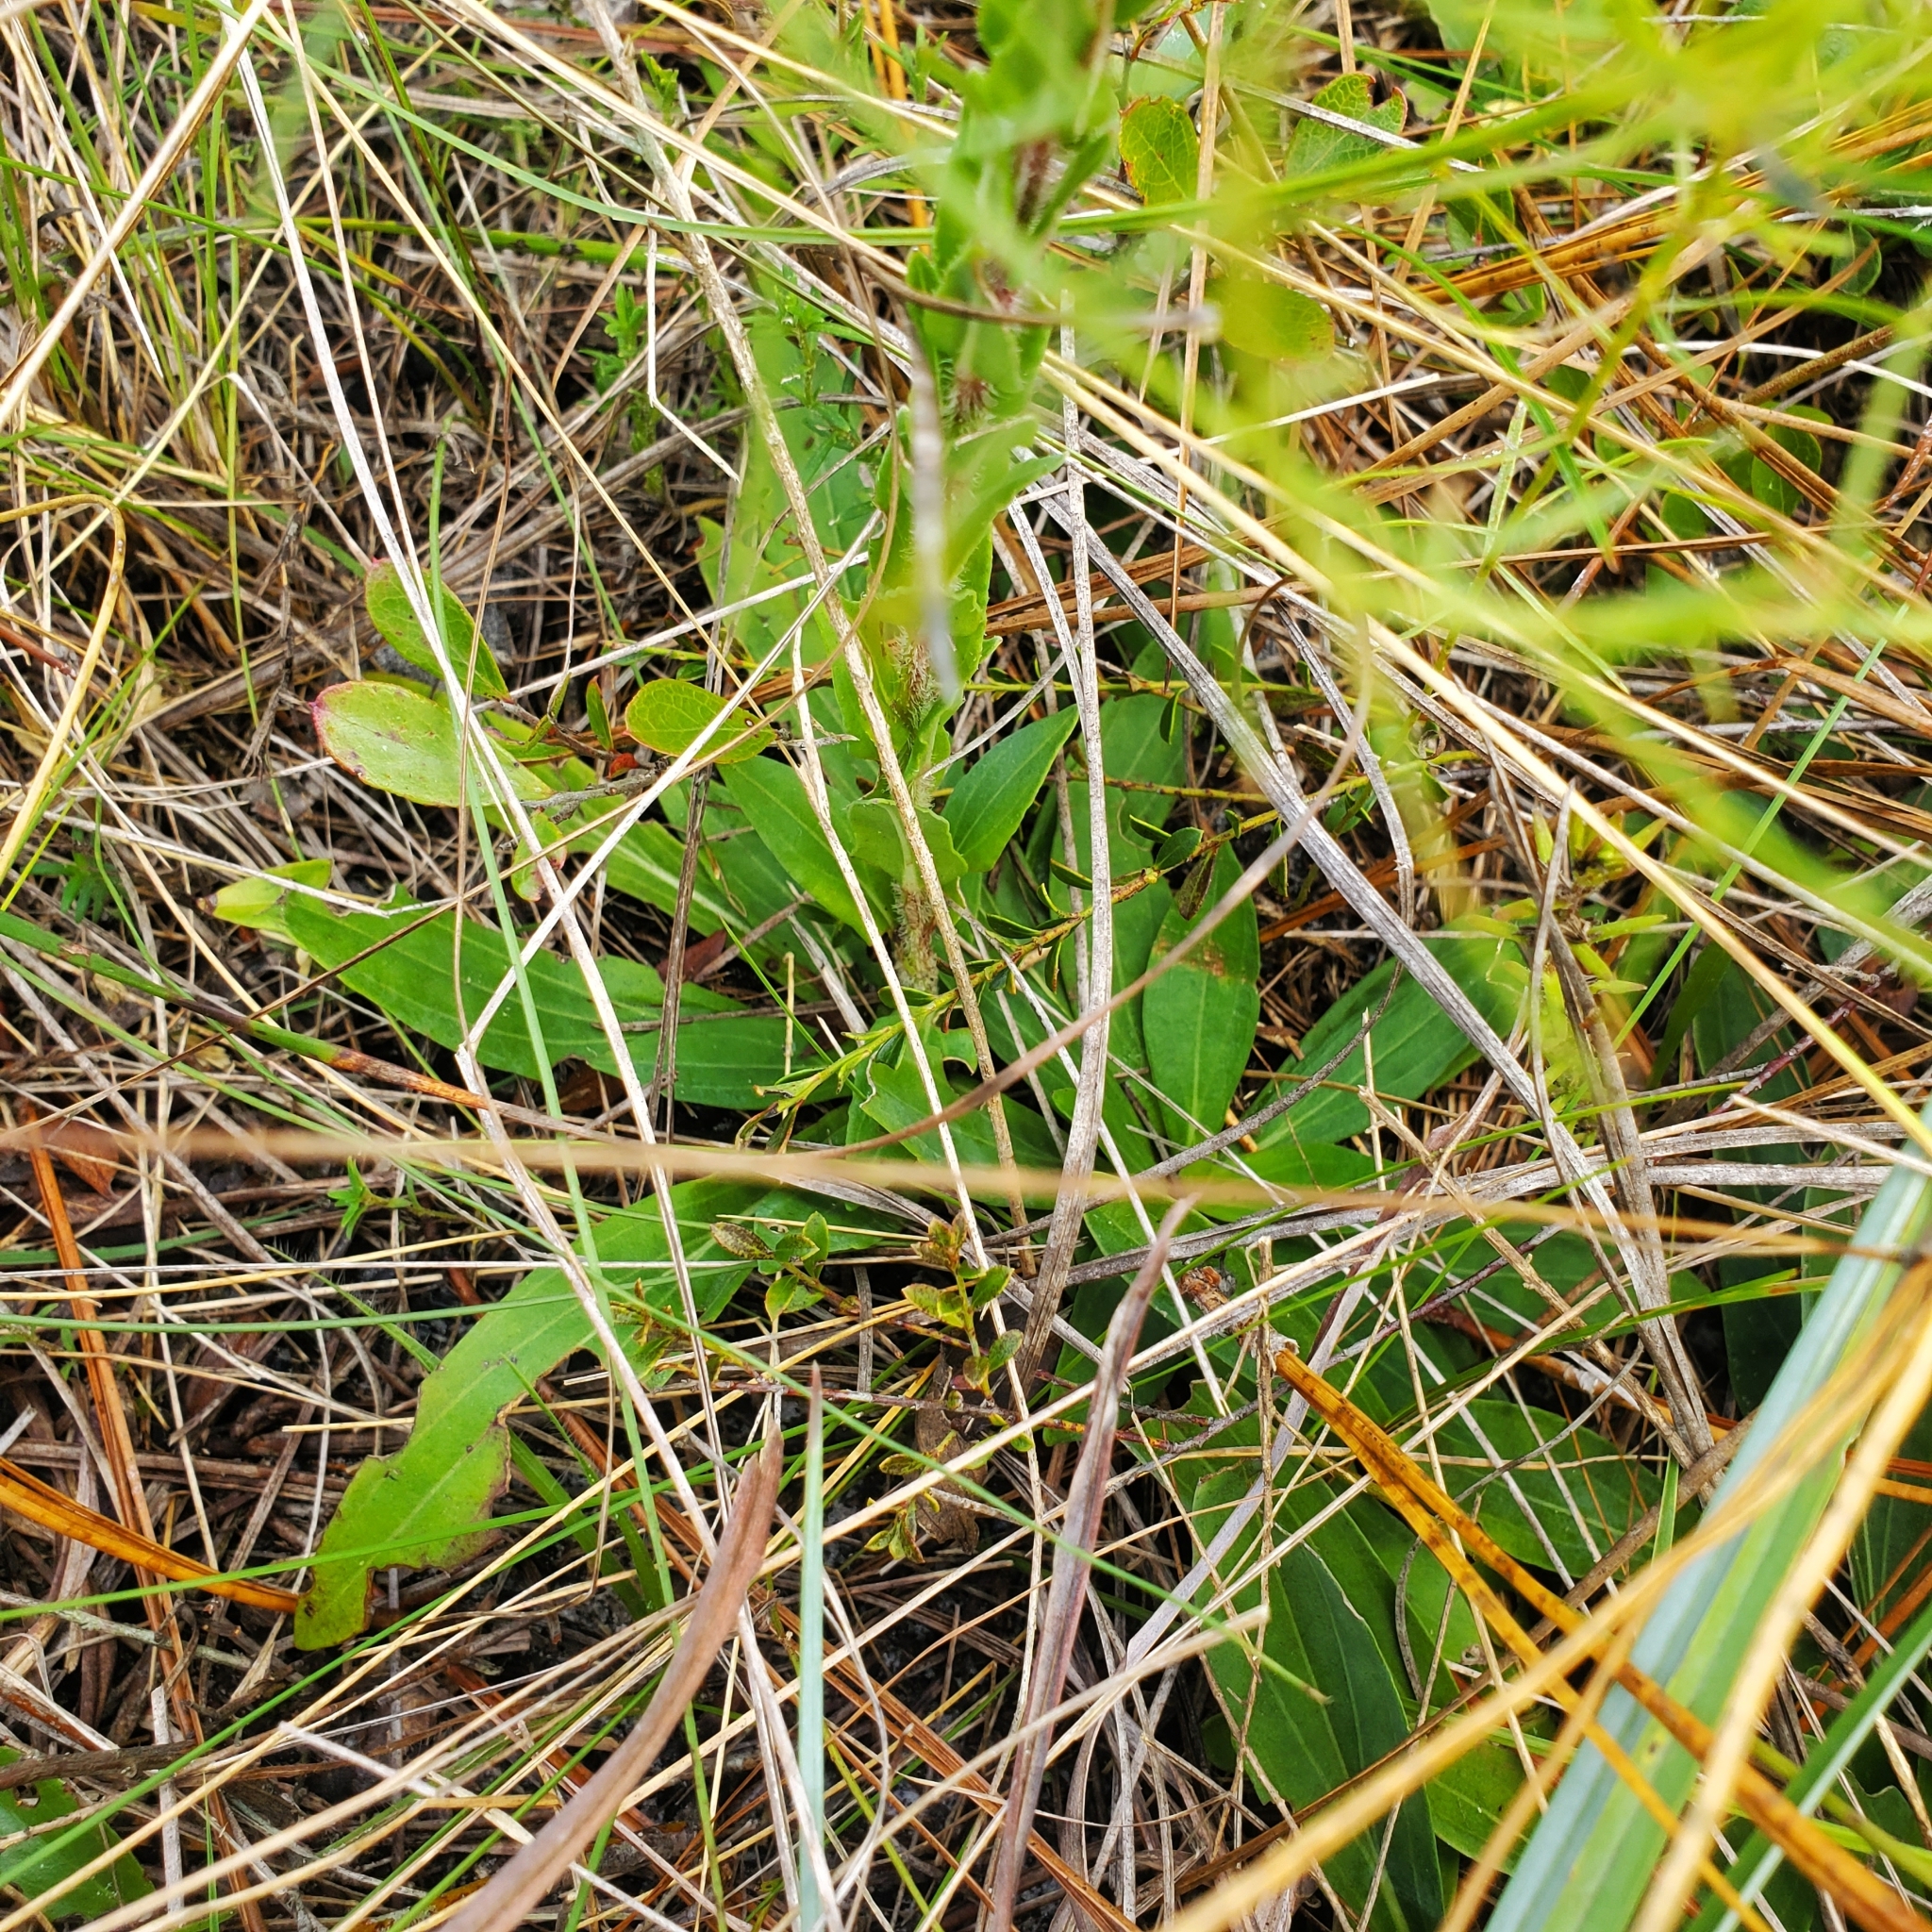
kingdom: Plantae
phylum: Tracheophyta
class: Magnoliopsida
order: Asterales
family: Asteraceae
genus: Carphephorus
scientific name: Carphephorus paniculatus
